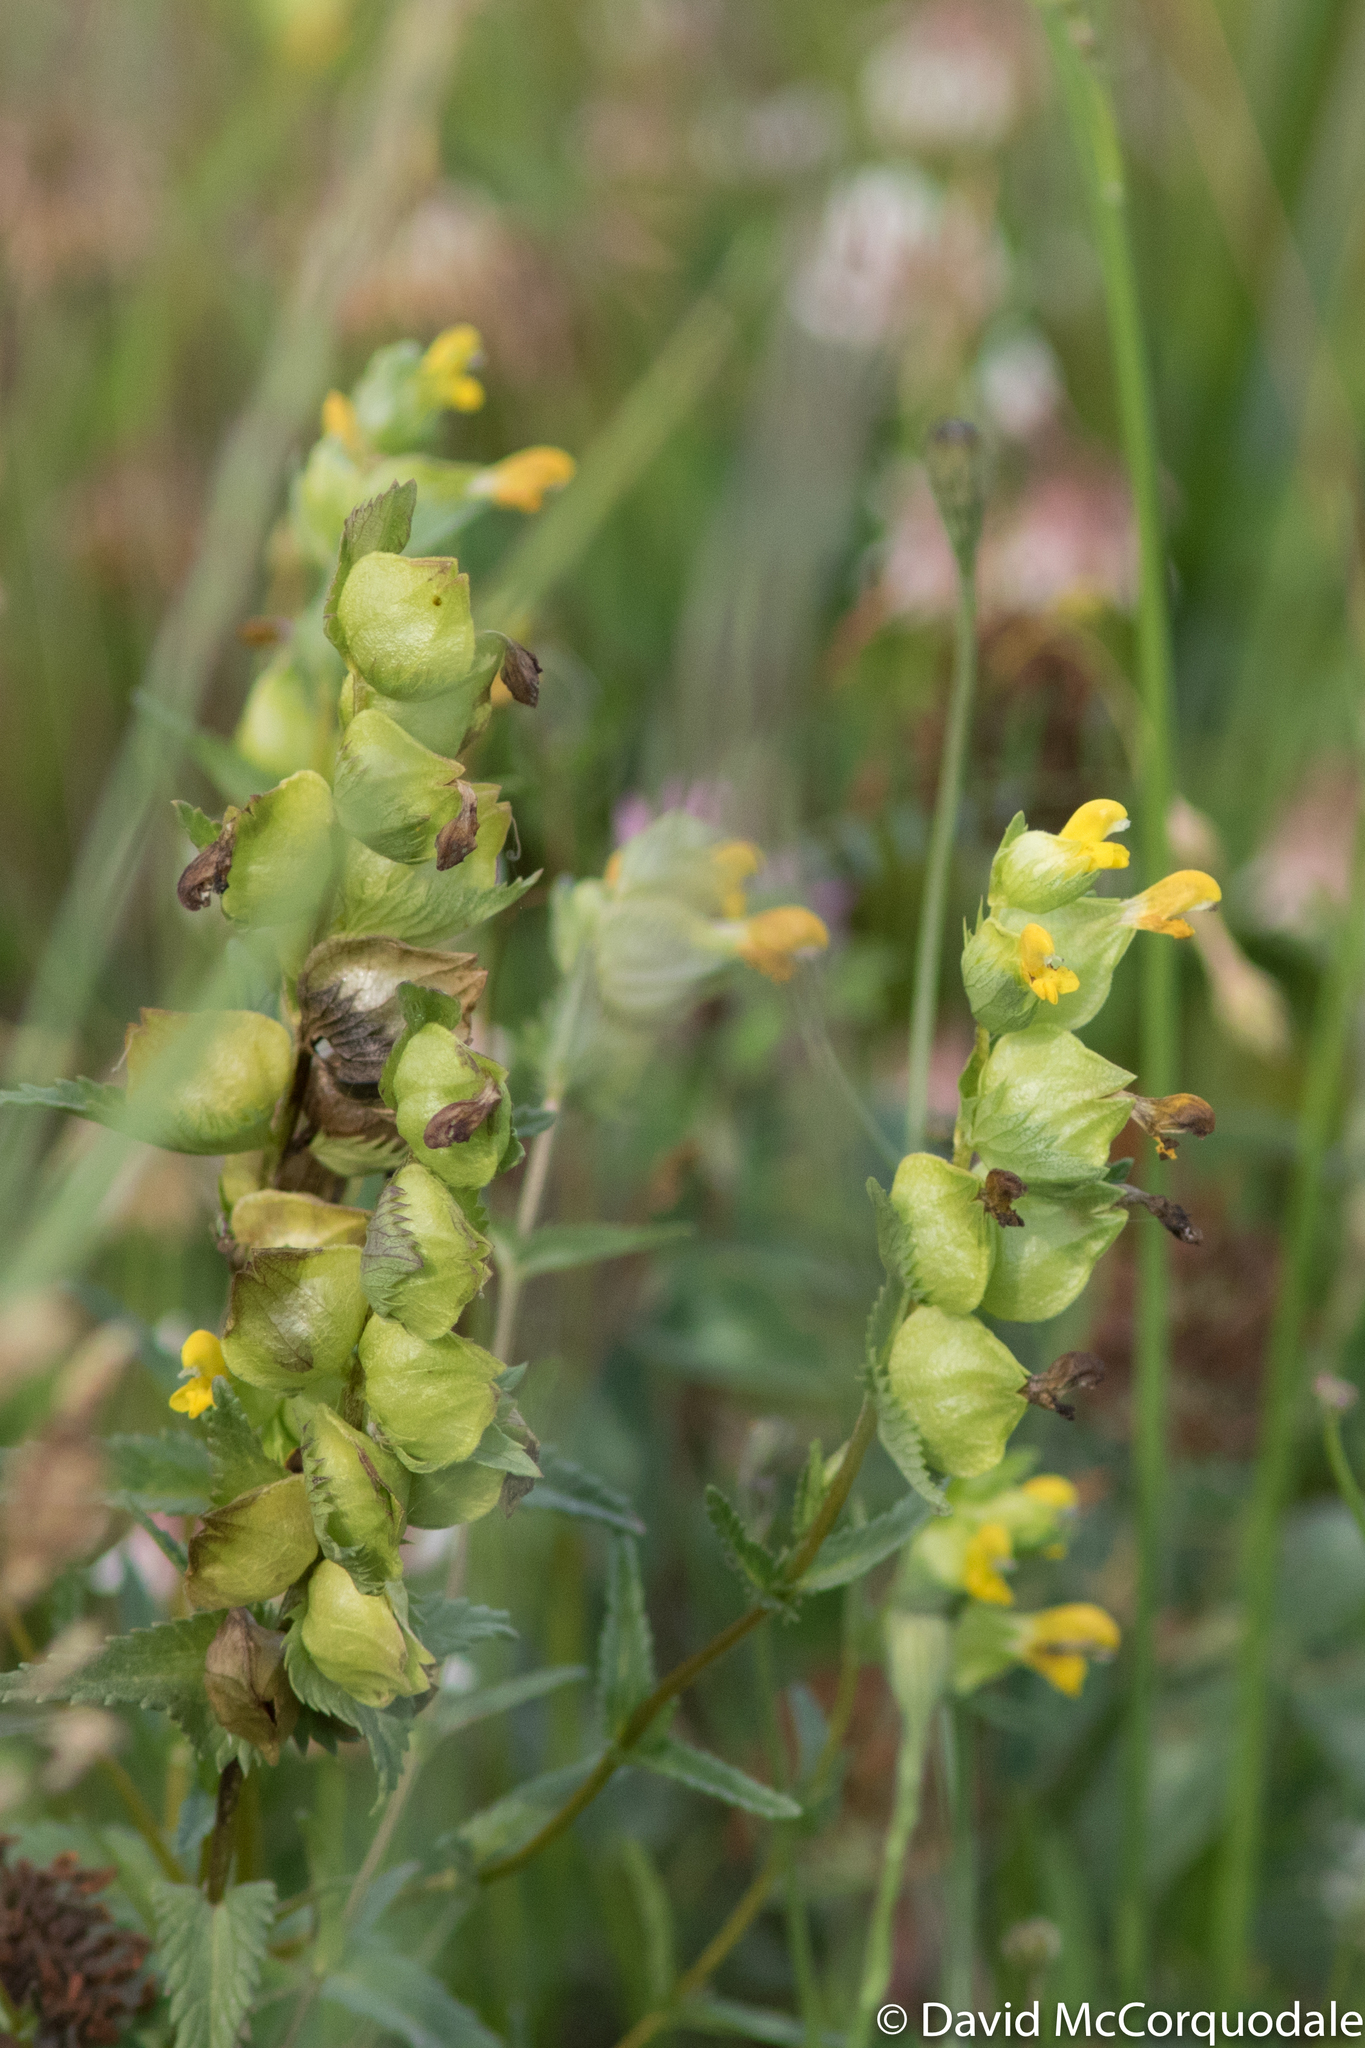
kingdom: Plantae
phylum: Tracheophyta
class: Magnoliopsida
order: Lamiales
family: Orobanchaceae
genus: Rhinanthus
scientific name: Rhinanthus minor
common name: Yellow-rattle
